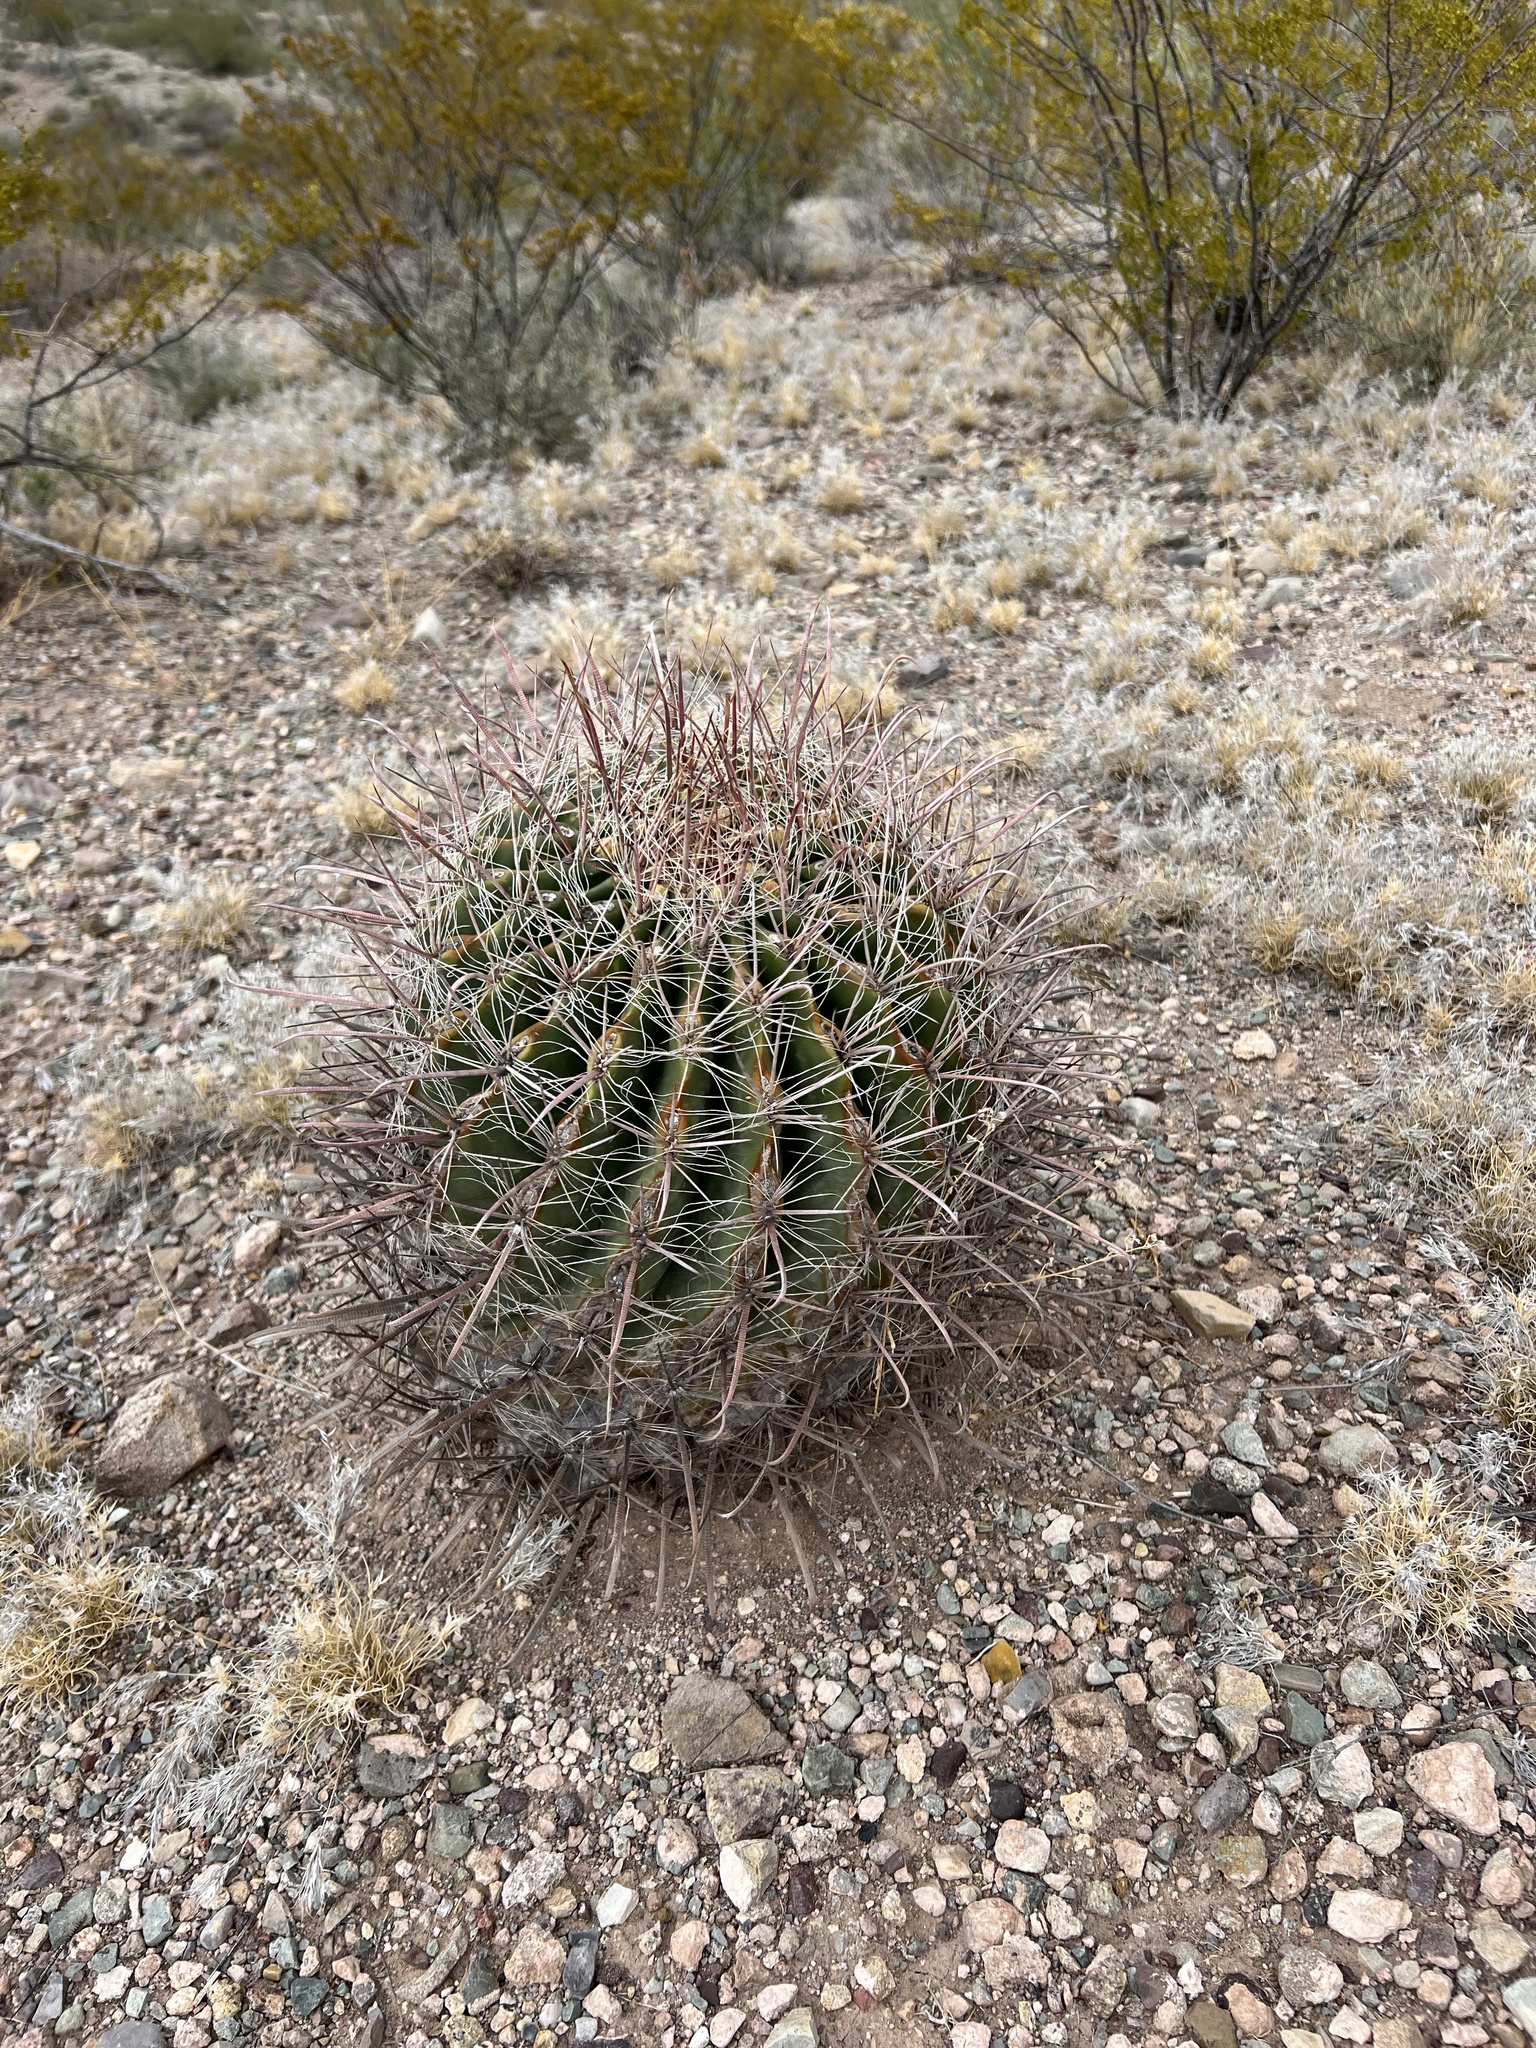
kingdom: Plantae
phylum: Tracheophyta
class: Magnoliopsida
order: Caryophyllales
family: Cactaceae
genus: Ferocactus
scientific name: Ferocactus wislizeni
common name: Candy barrel cactus
